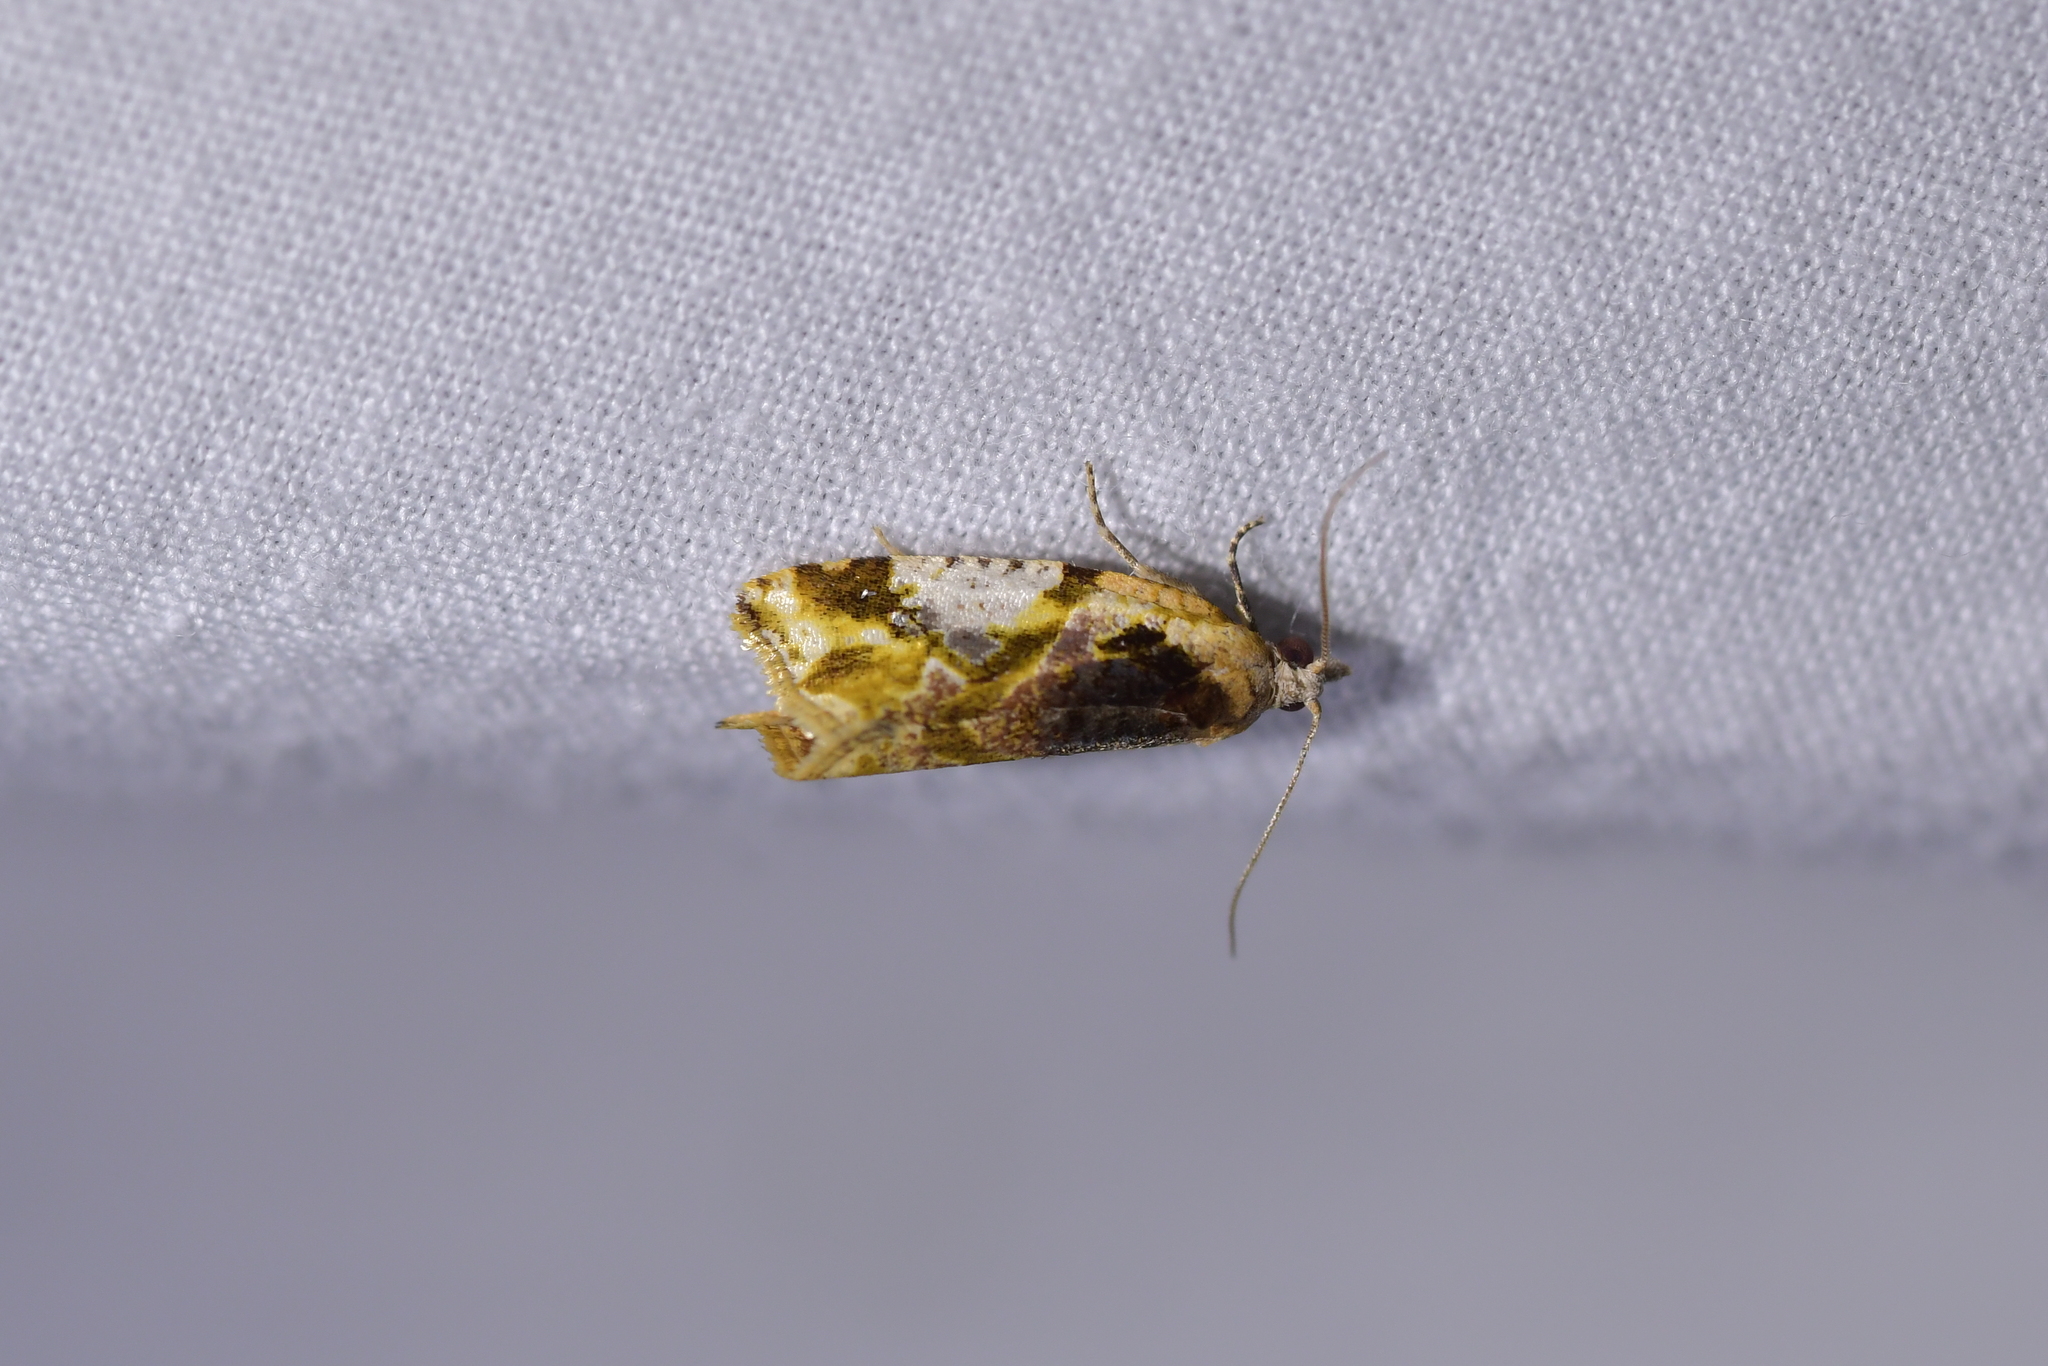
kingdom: Animalia
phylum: Arthropoda
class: Insecta
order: Lepidoptera
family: Tortricidae
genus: Pyrgotis
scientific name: Pyrgotis plagiatana
